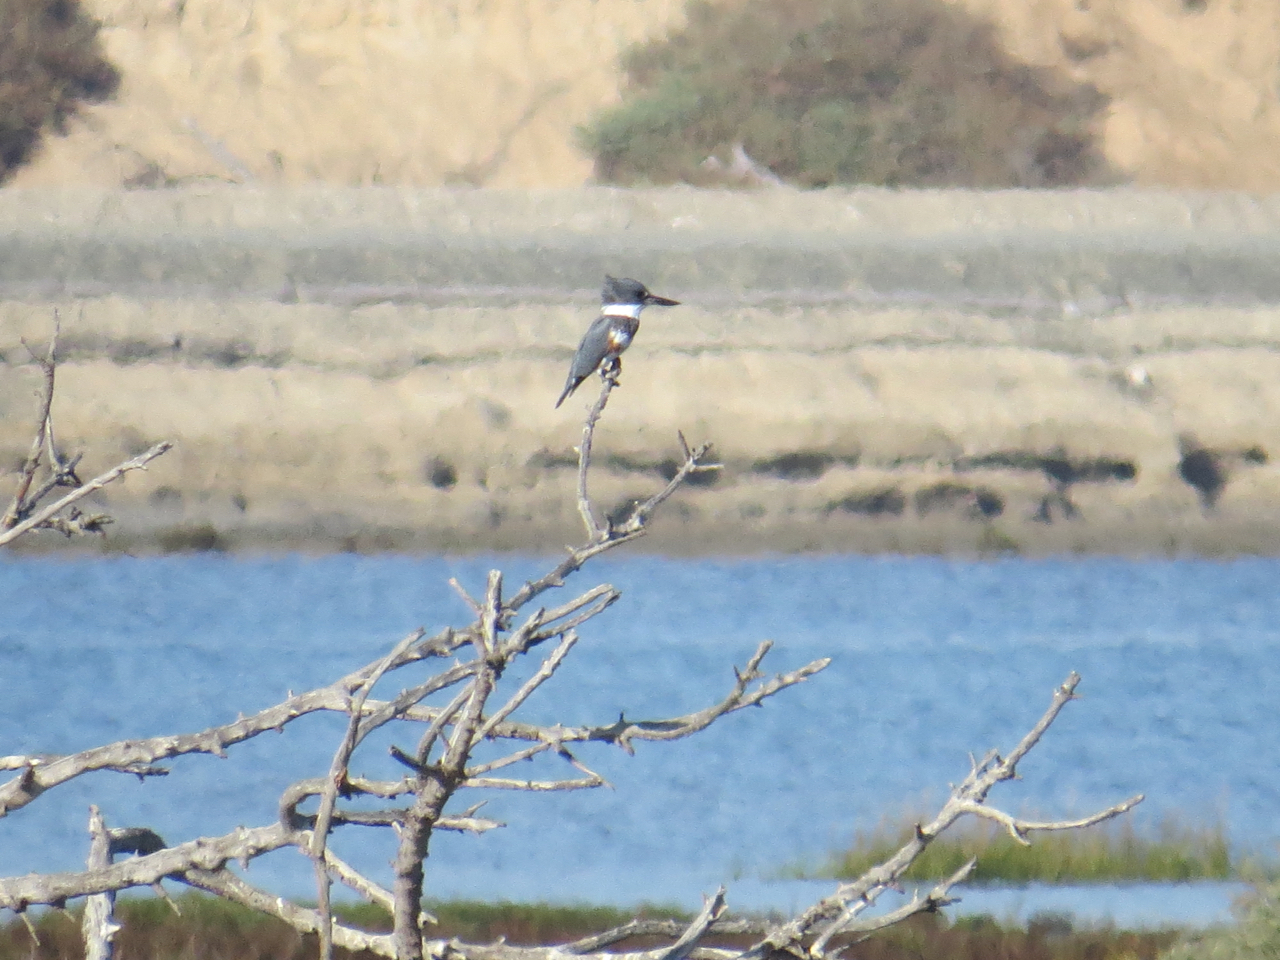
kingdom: Animalia
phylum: Chordata
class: Aves
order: Coraciiformes
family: Alcedinidae
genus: Megaceryle
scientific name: Megaceryle alcyon
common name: Belted kingfisher
